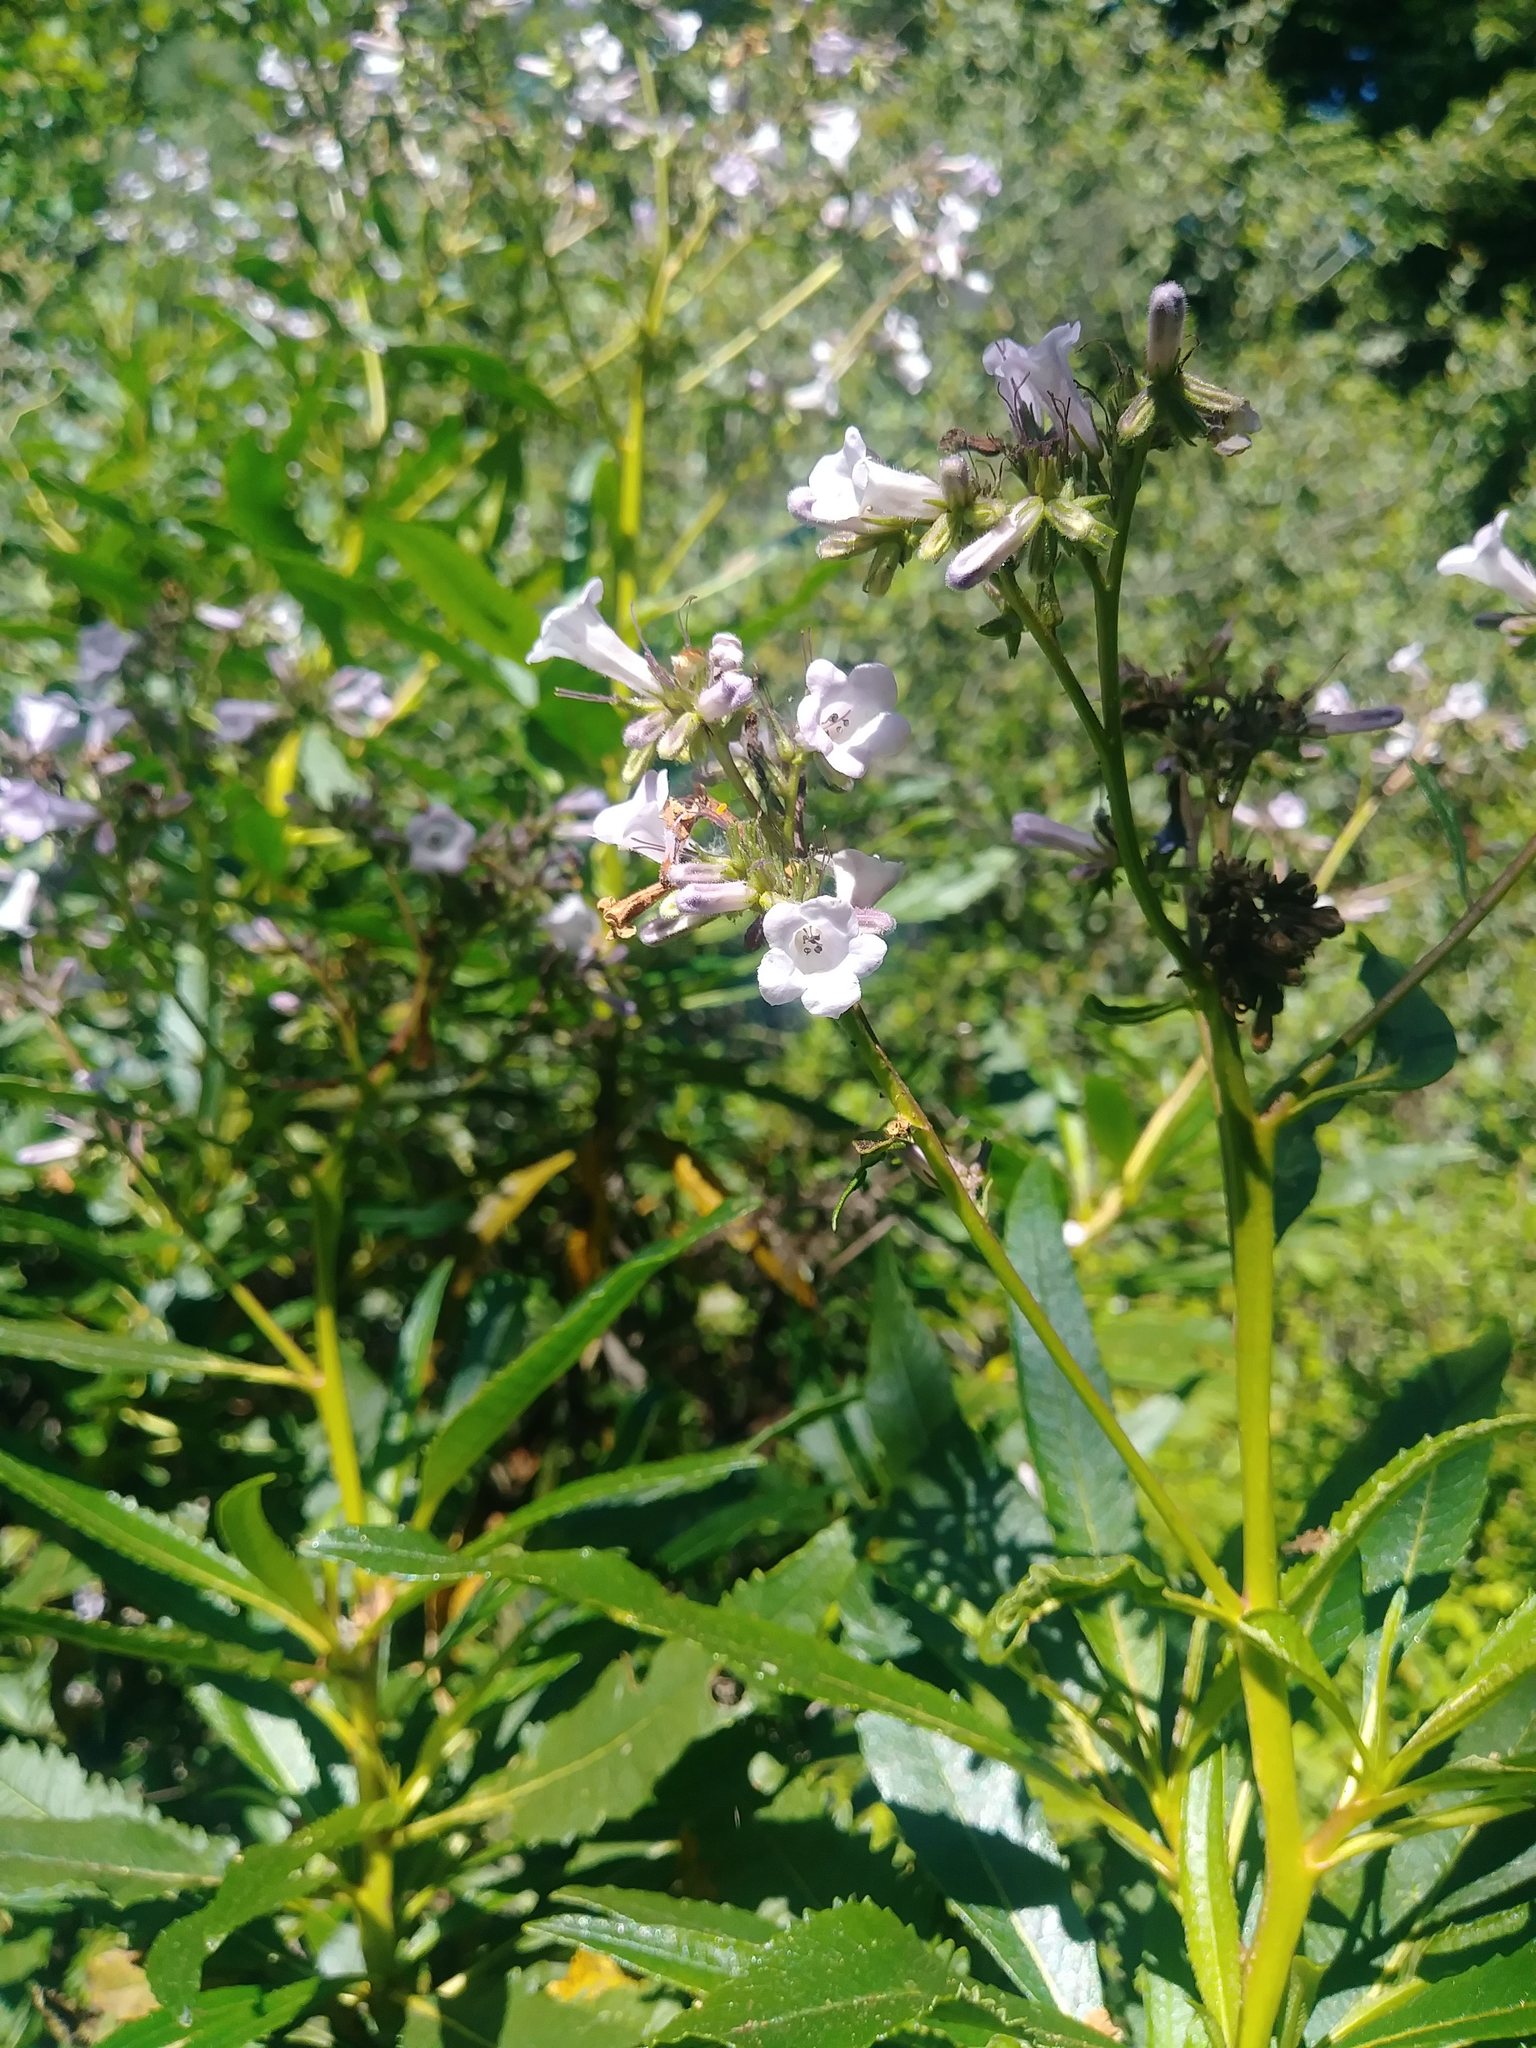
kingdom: Plantae
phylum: Tracheophyta
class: Magnoliopsida
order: Boraginales
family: Namaceae
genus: Eriodictyon
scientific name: Eriodictyon californicum
